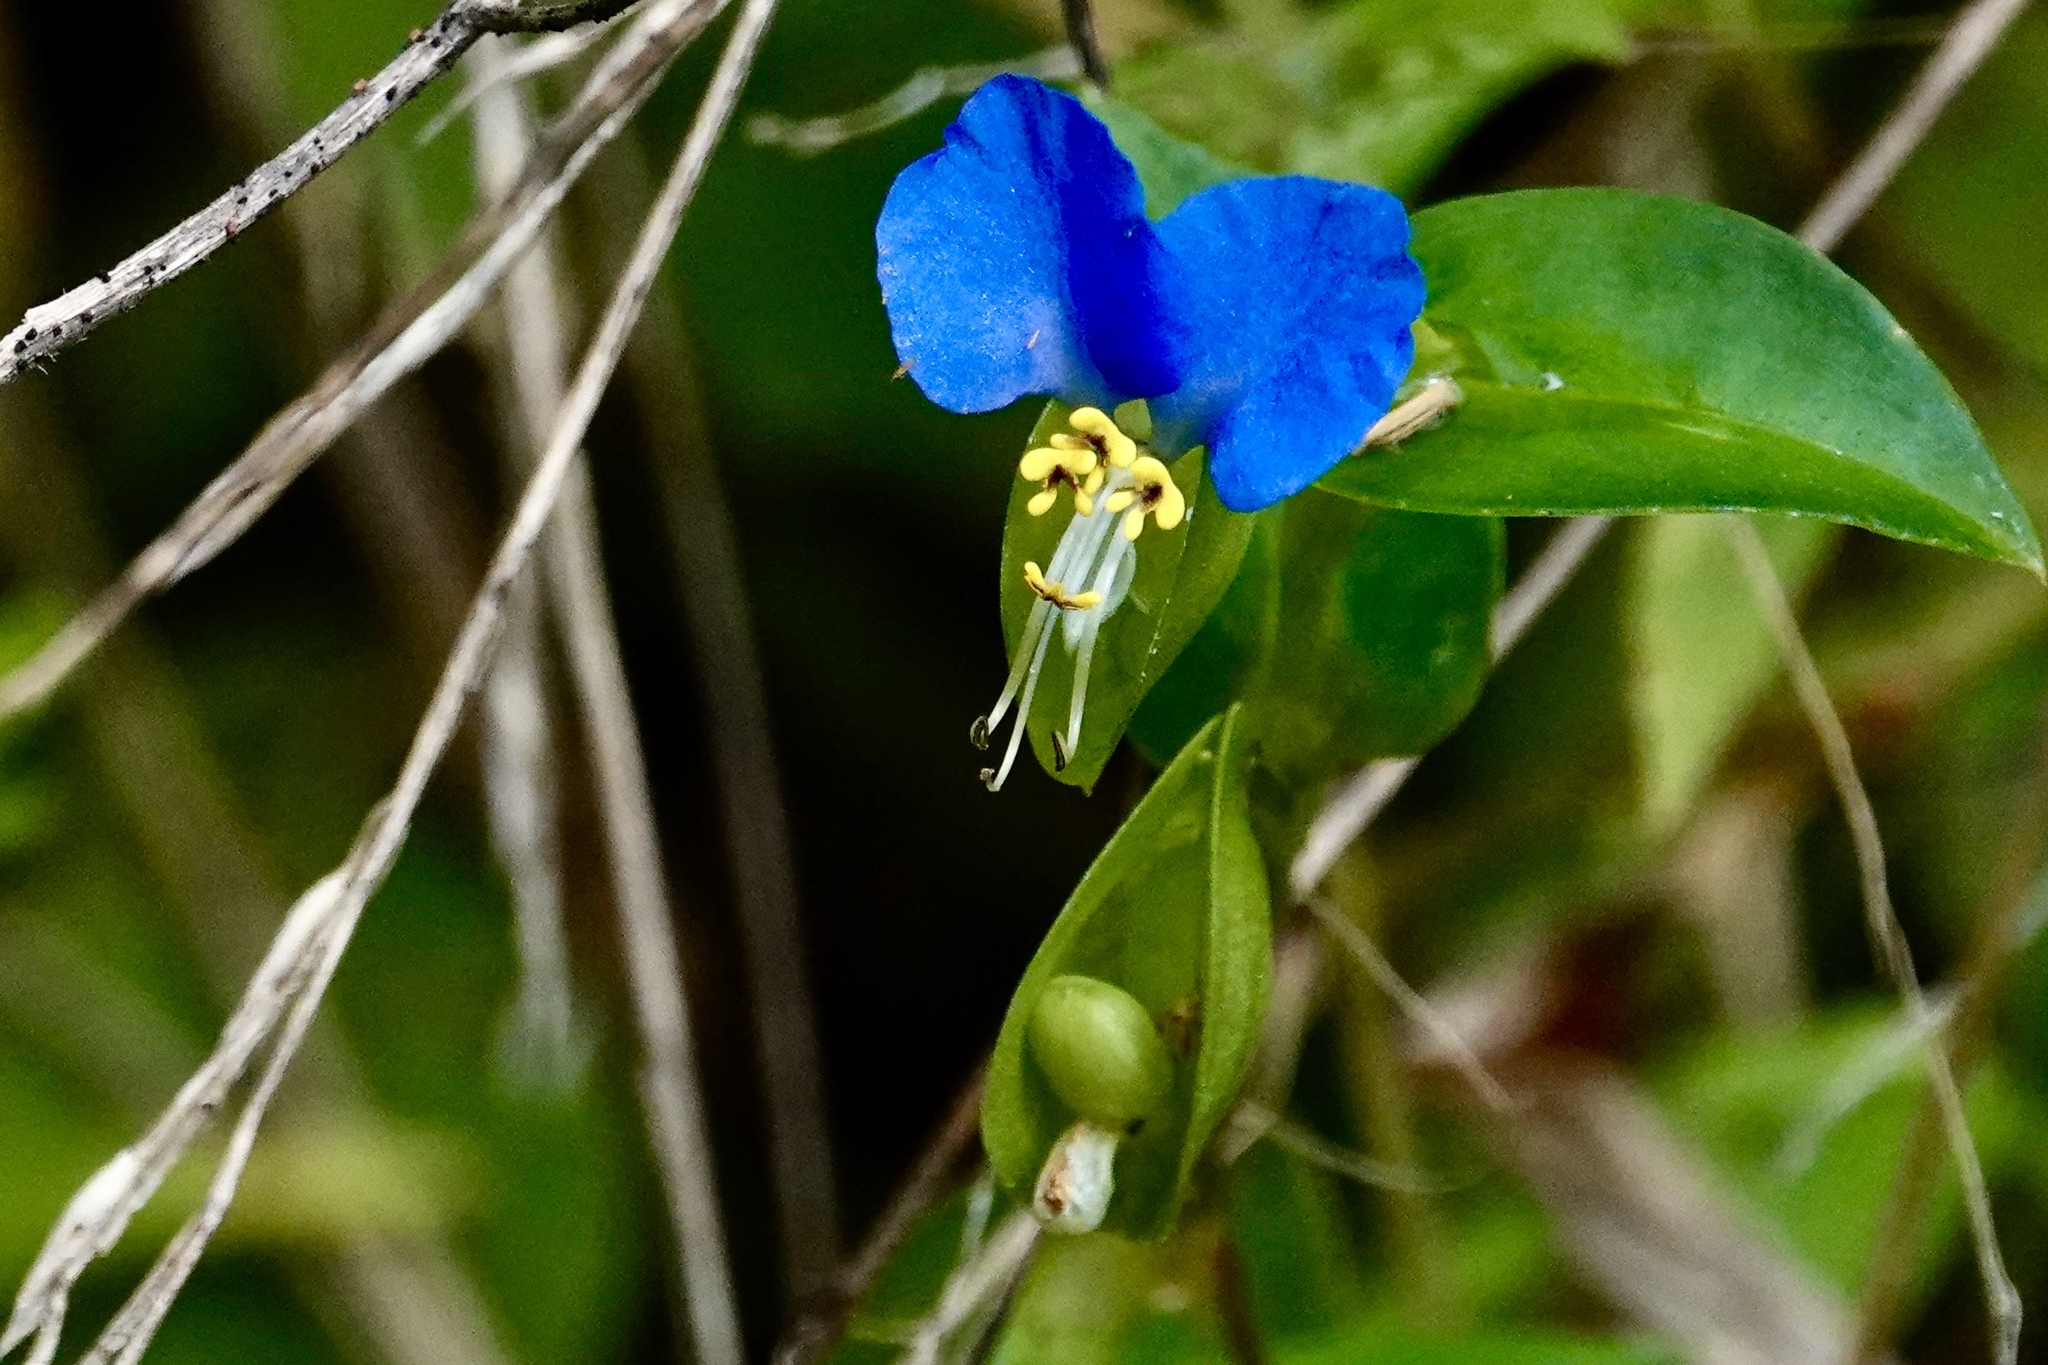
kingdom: Plantae
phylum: Tracheophyta
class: Liliopsida
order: Commelinales
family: Commelinaceae
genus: Commelina
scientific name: Commelina communis
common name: Asiatic dayflower
